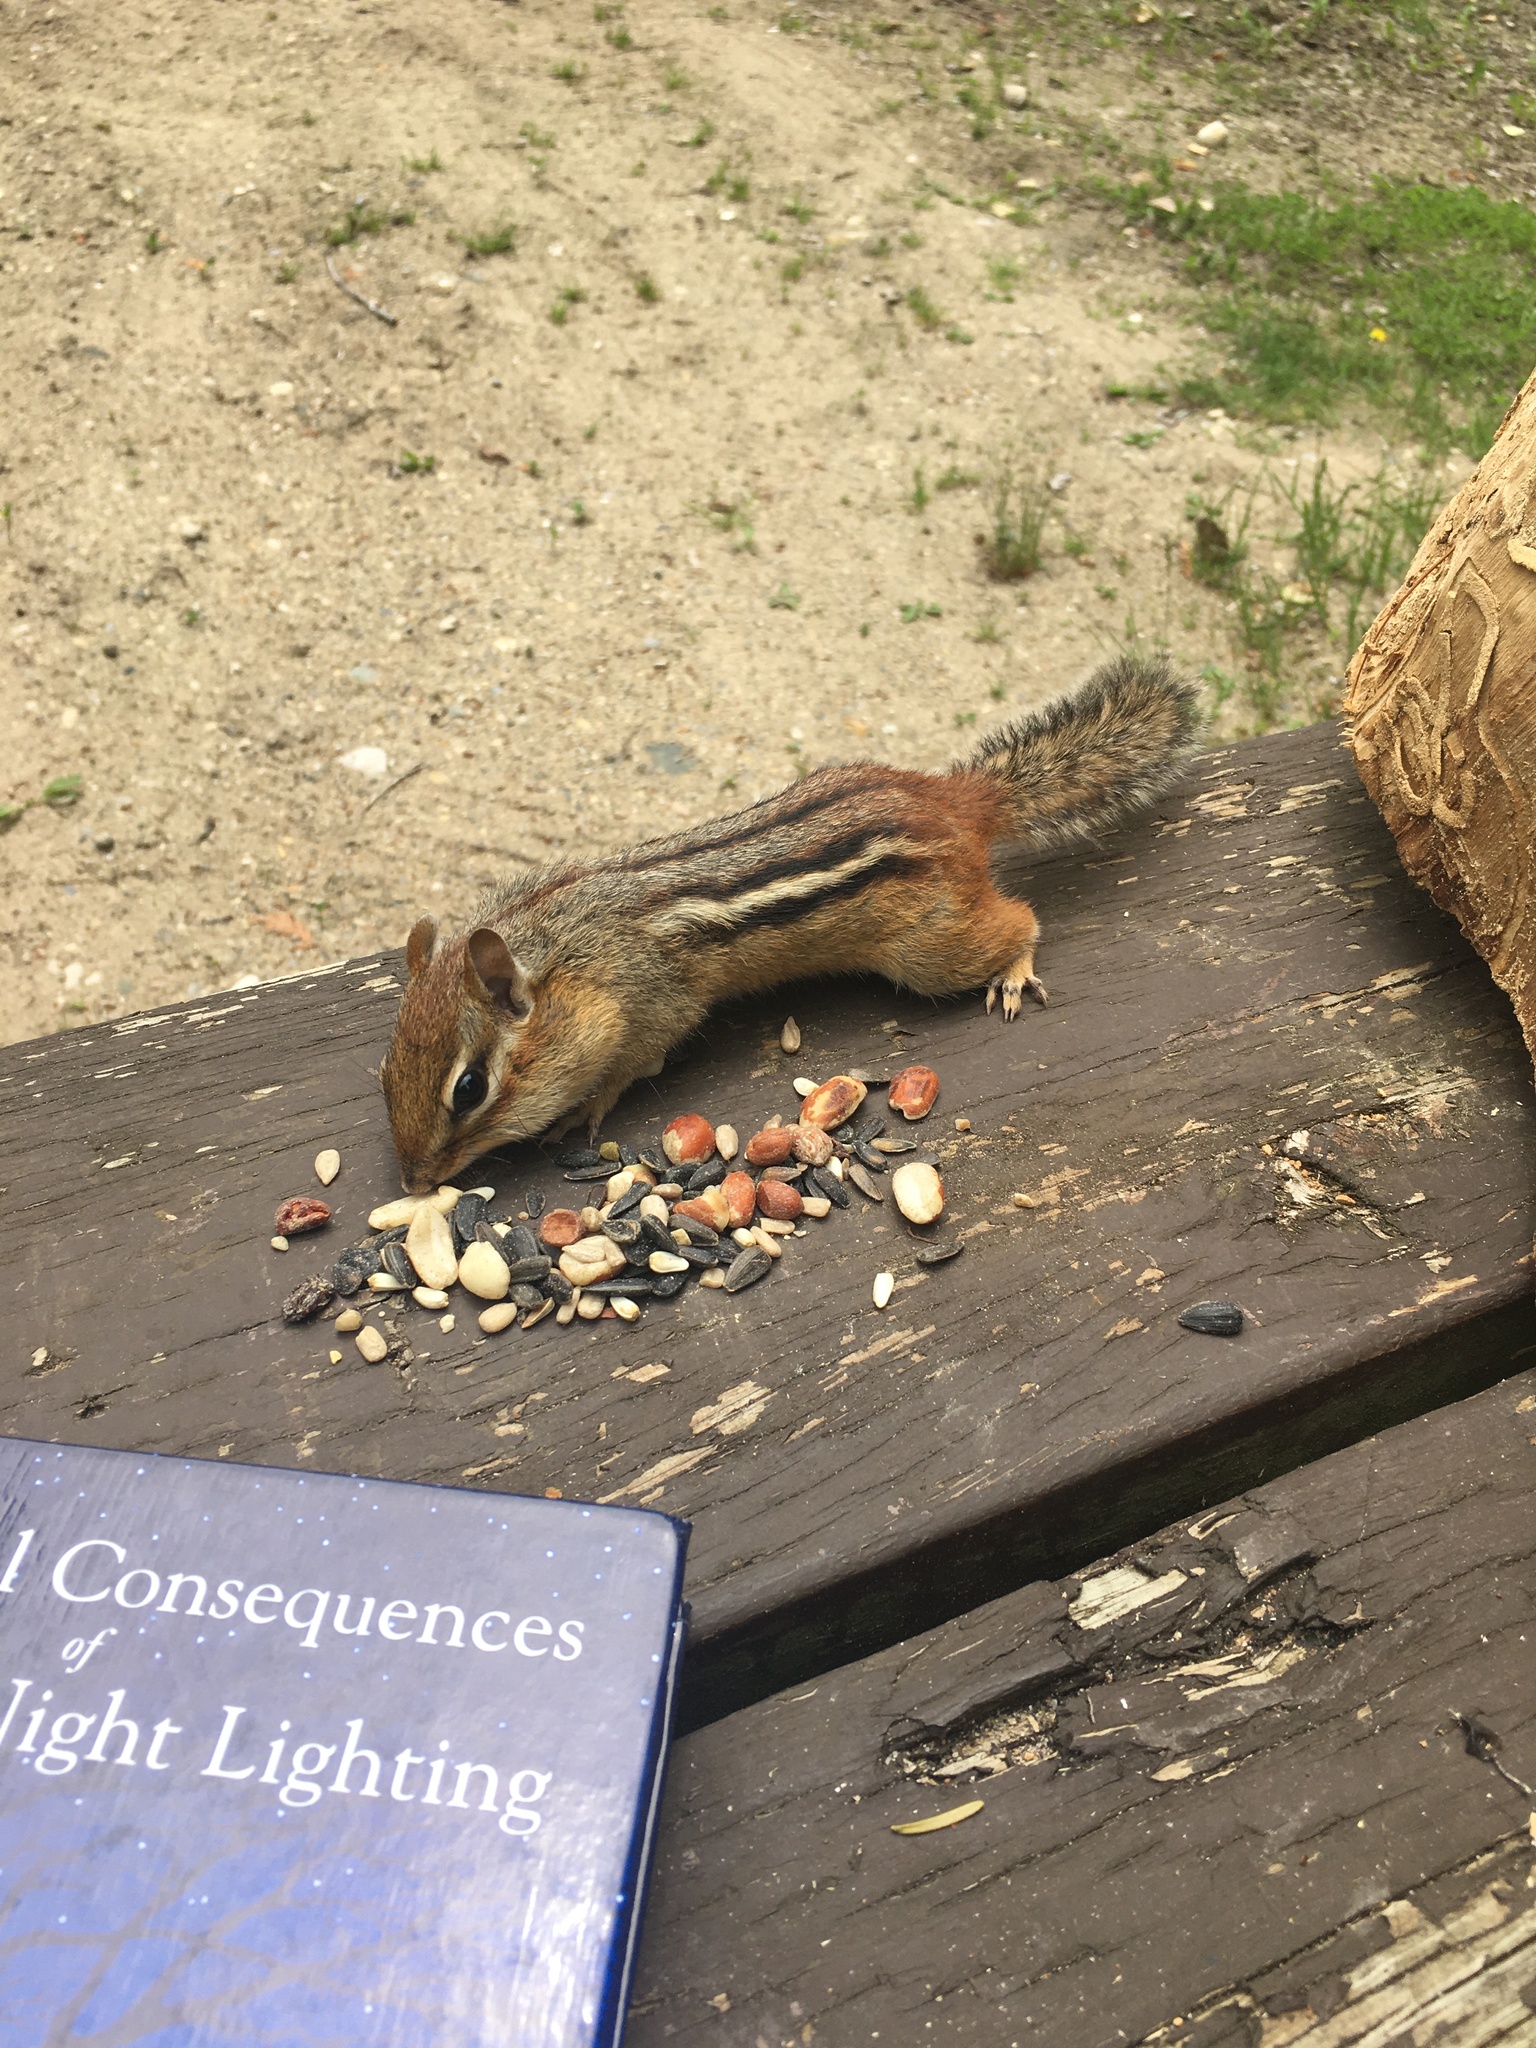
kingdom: Animalia
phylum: Chordata
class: Mammalia
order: Rodentia
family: Sciuridae
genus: Tamias
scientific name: Tamias striatus
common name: Eastern chipmunk
